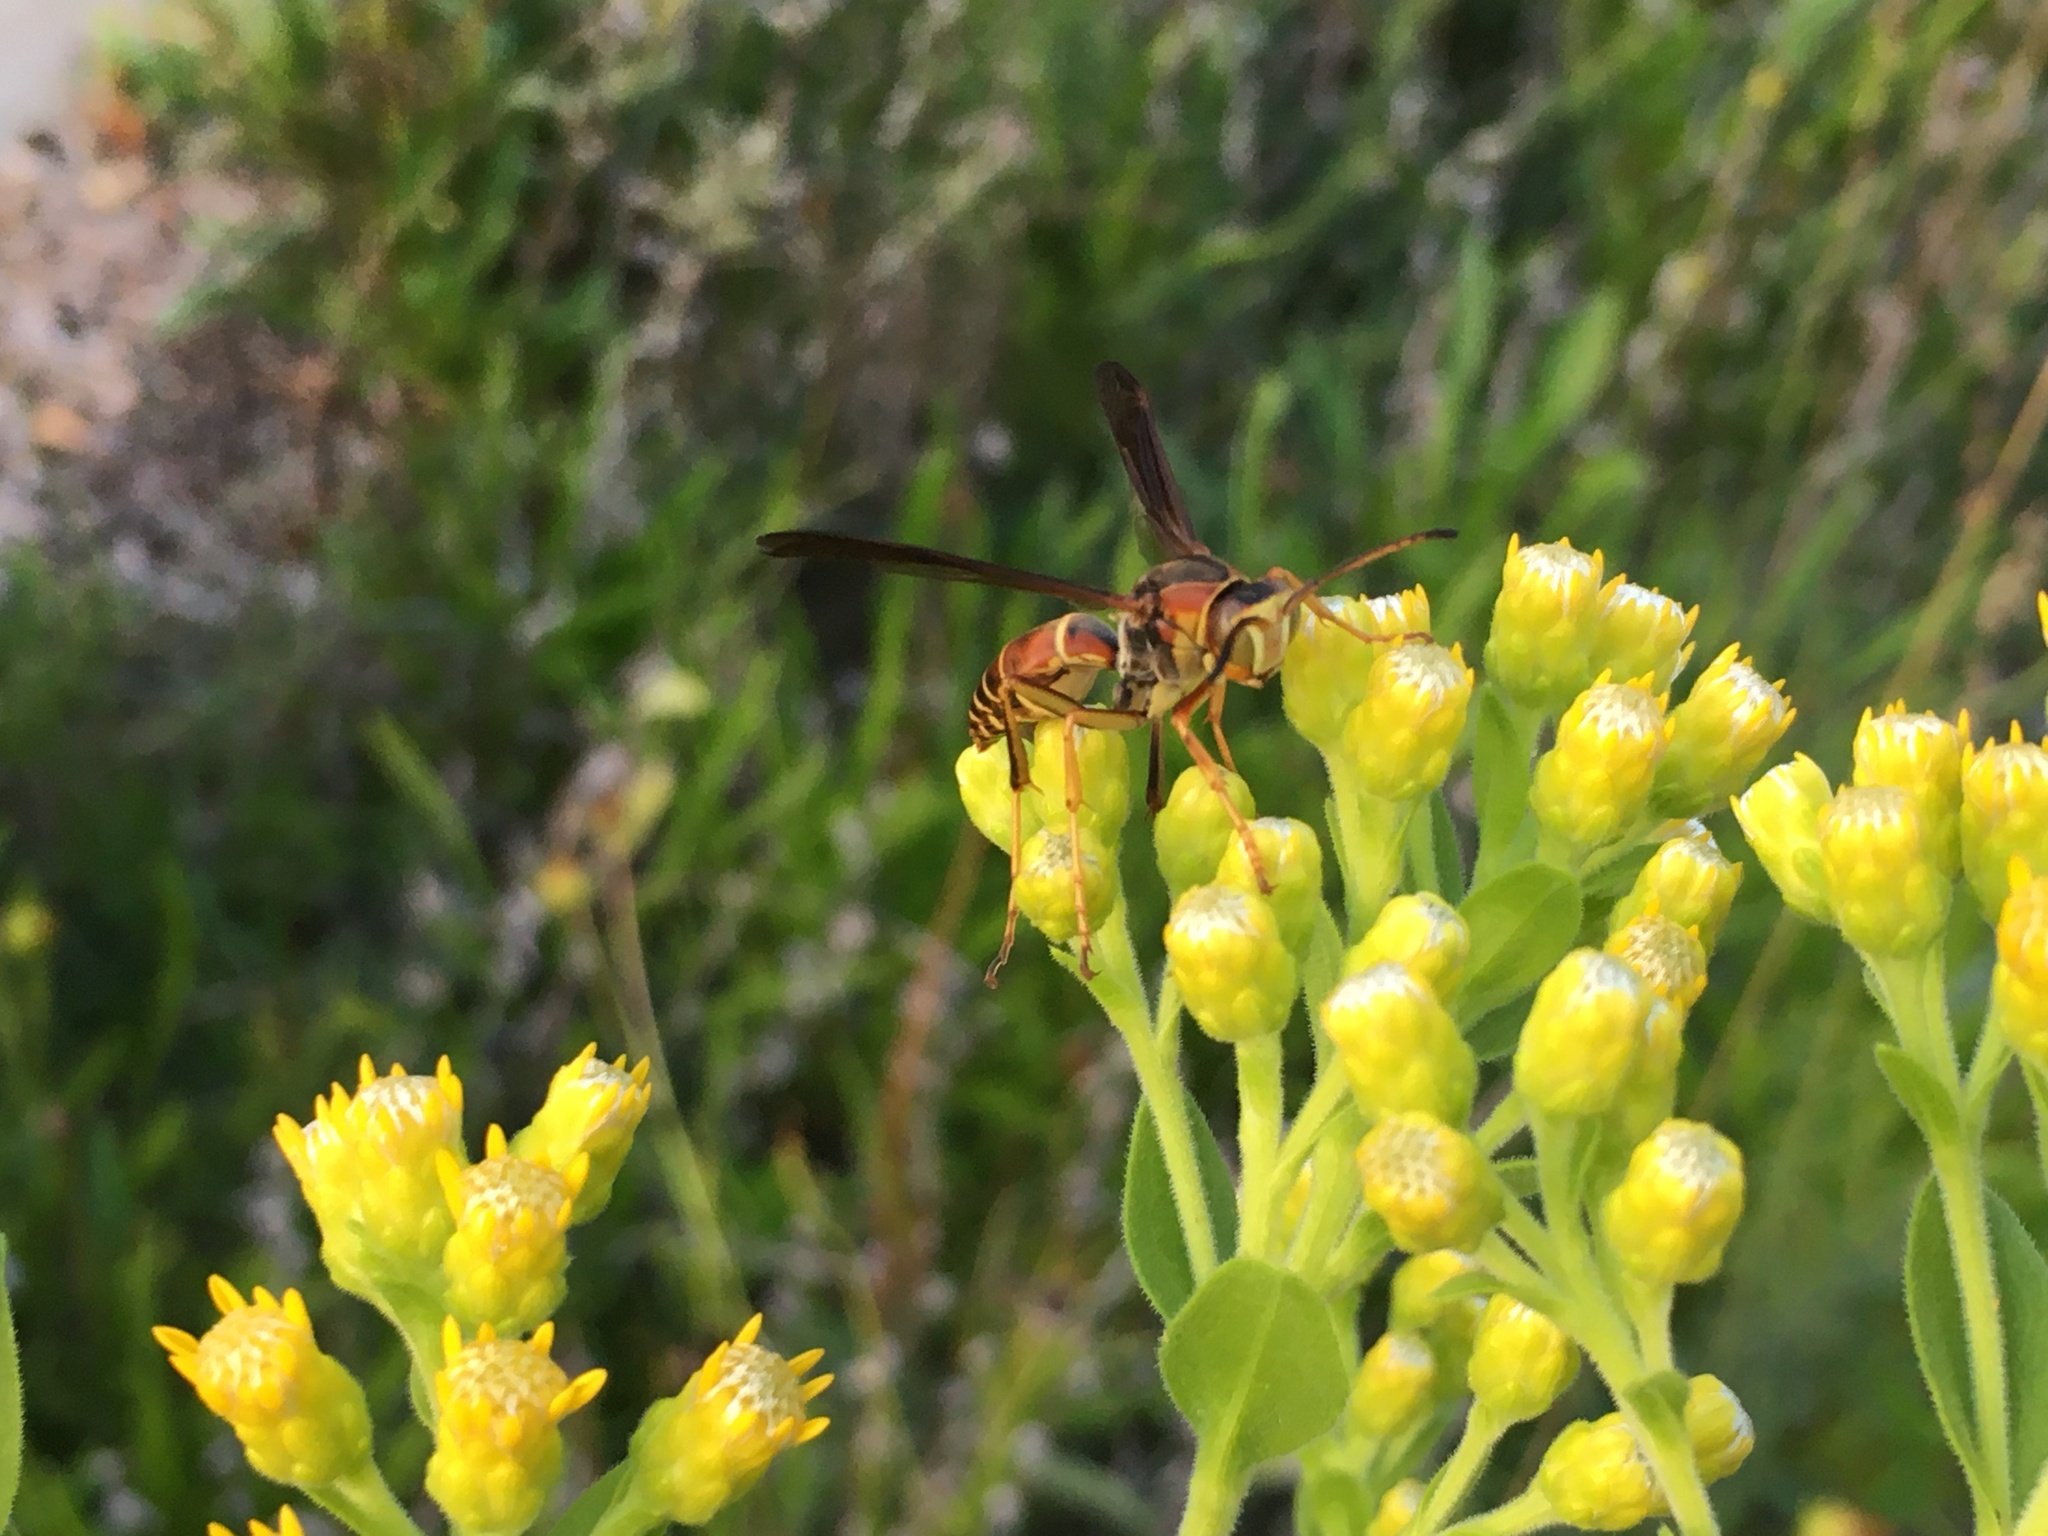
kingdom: Animalia
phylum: Arthropoda
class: Insecta
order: Hymenoptera
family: Eumenidae
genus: Polistes
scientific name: Polistes fuscatus
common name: Dark paper wasp
